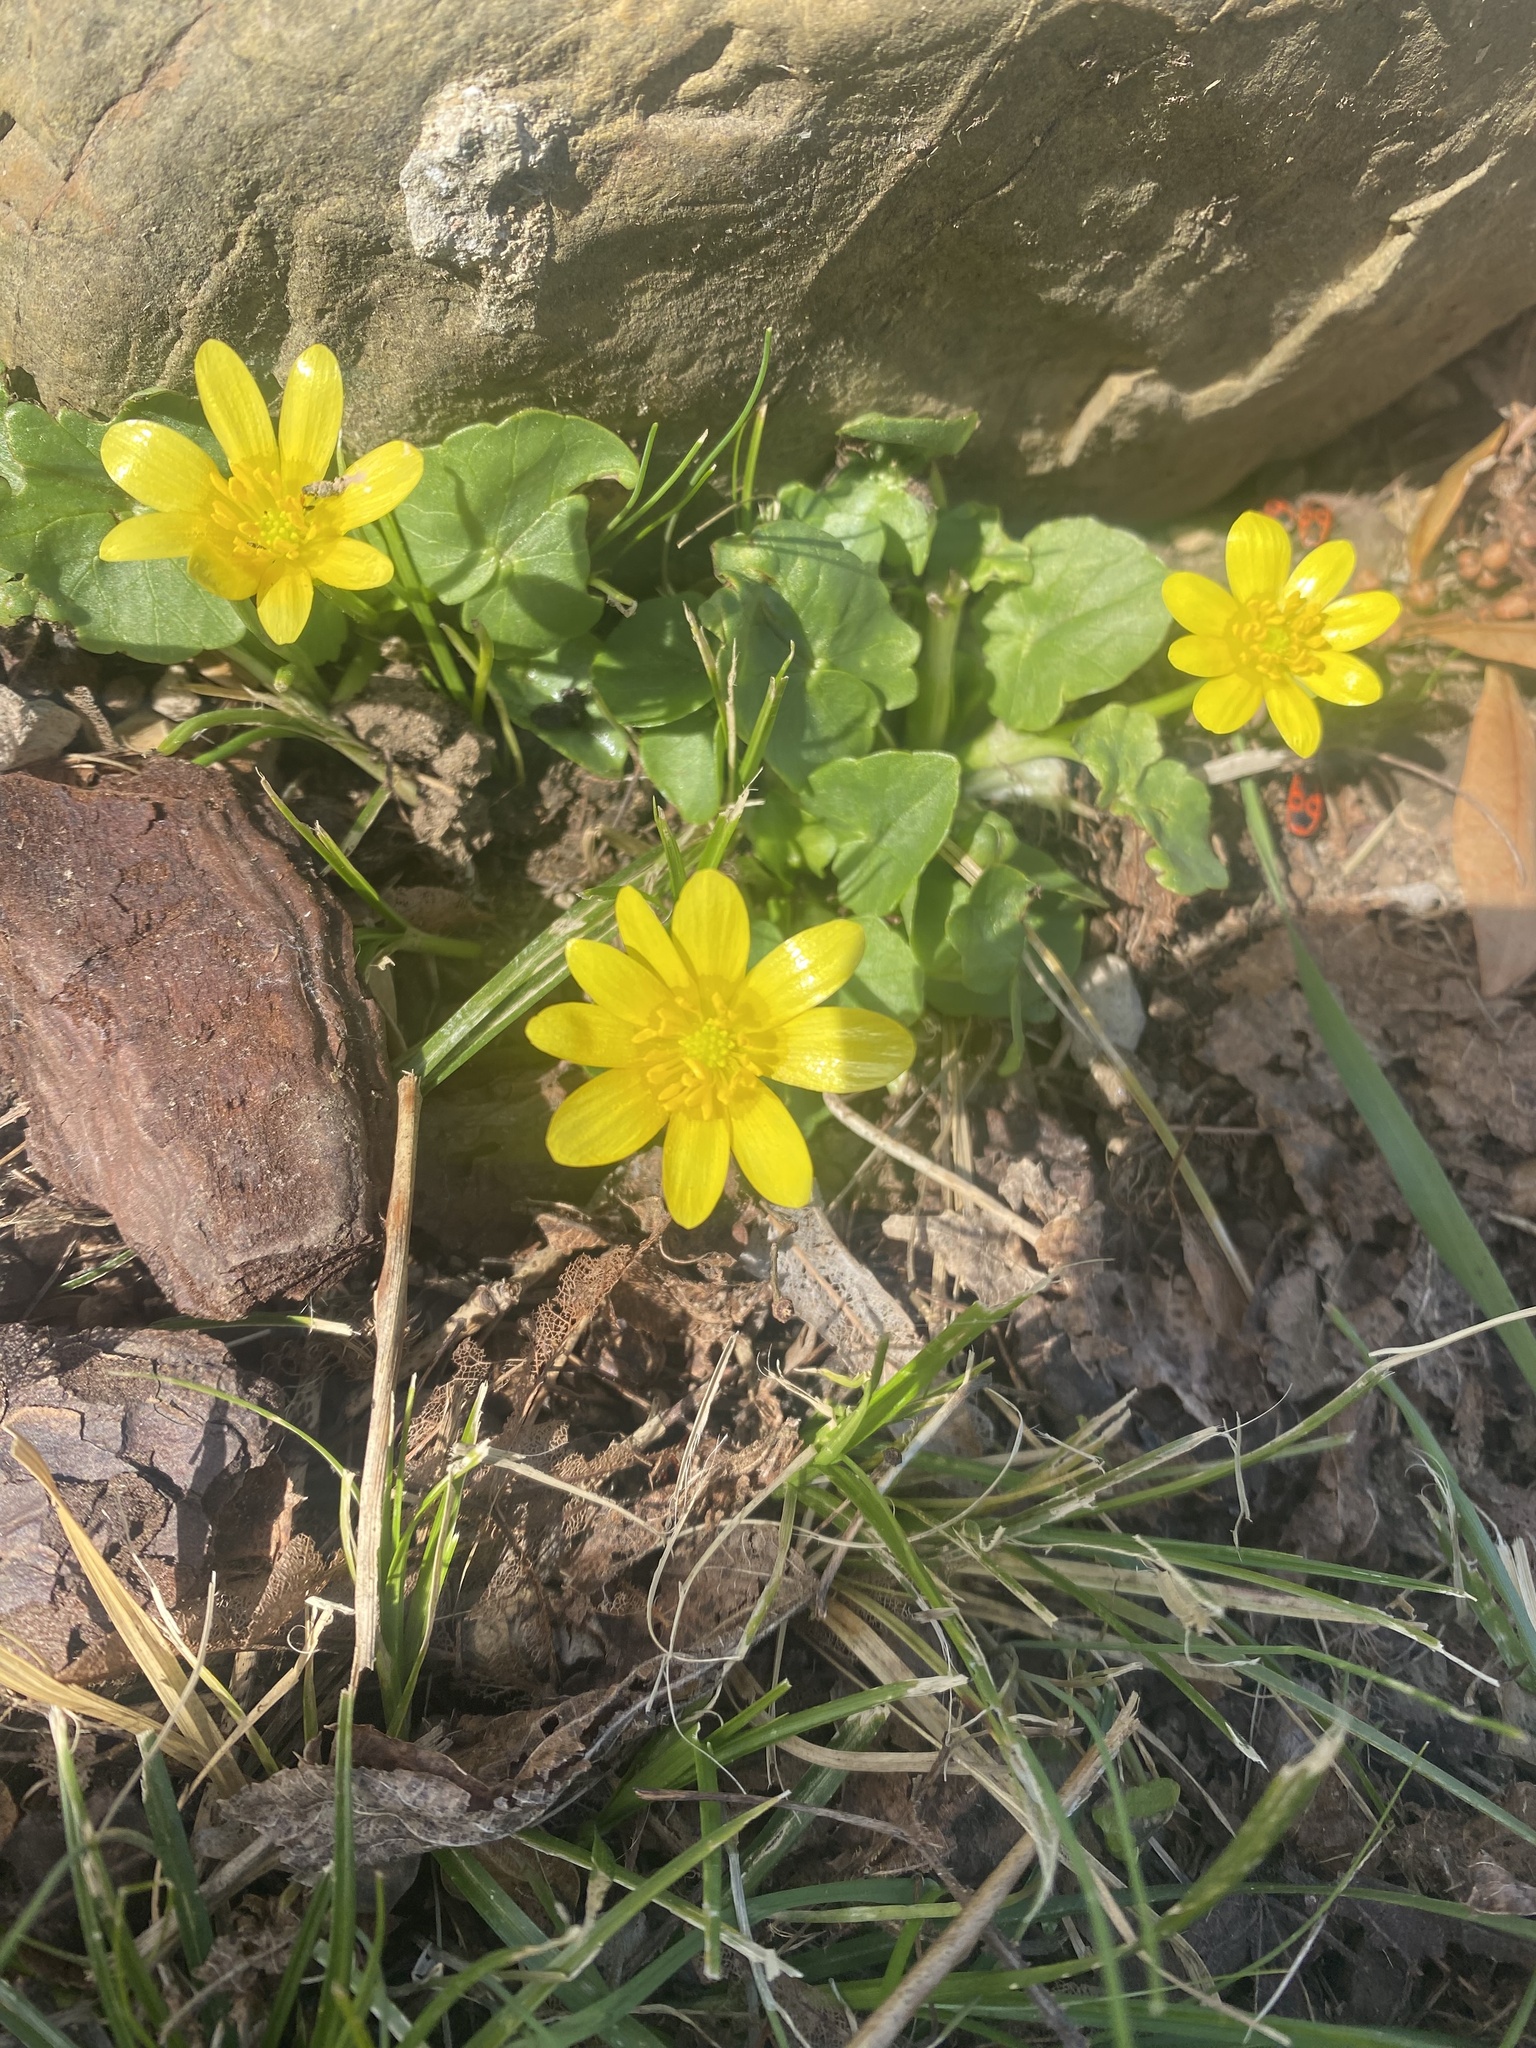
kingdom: Plantae
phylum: Tracheophyta
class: Magnoliopsida
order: Ranunculales
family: Ranunculaceae
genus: Ficaria
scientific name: Ficaria verna
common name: Lesser celandine
